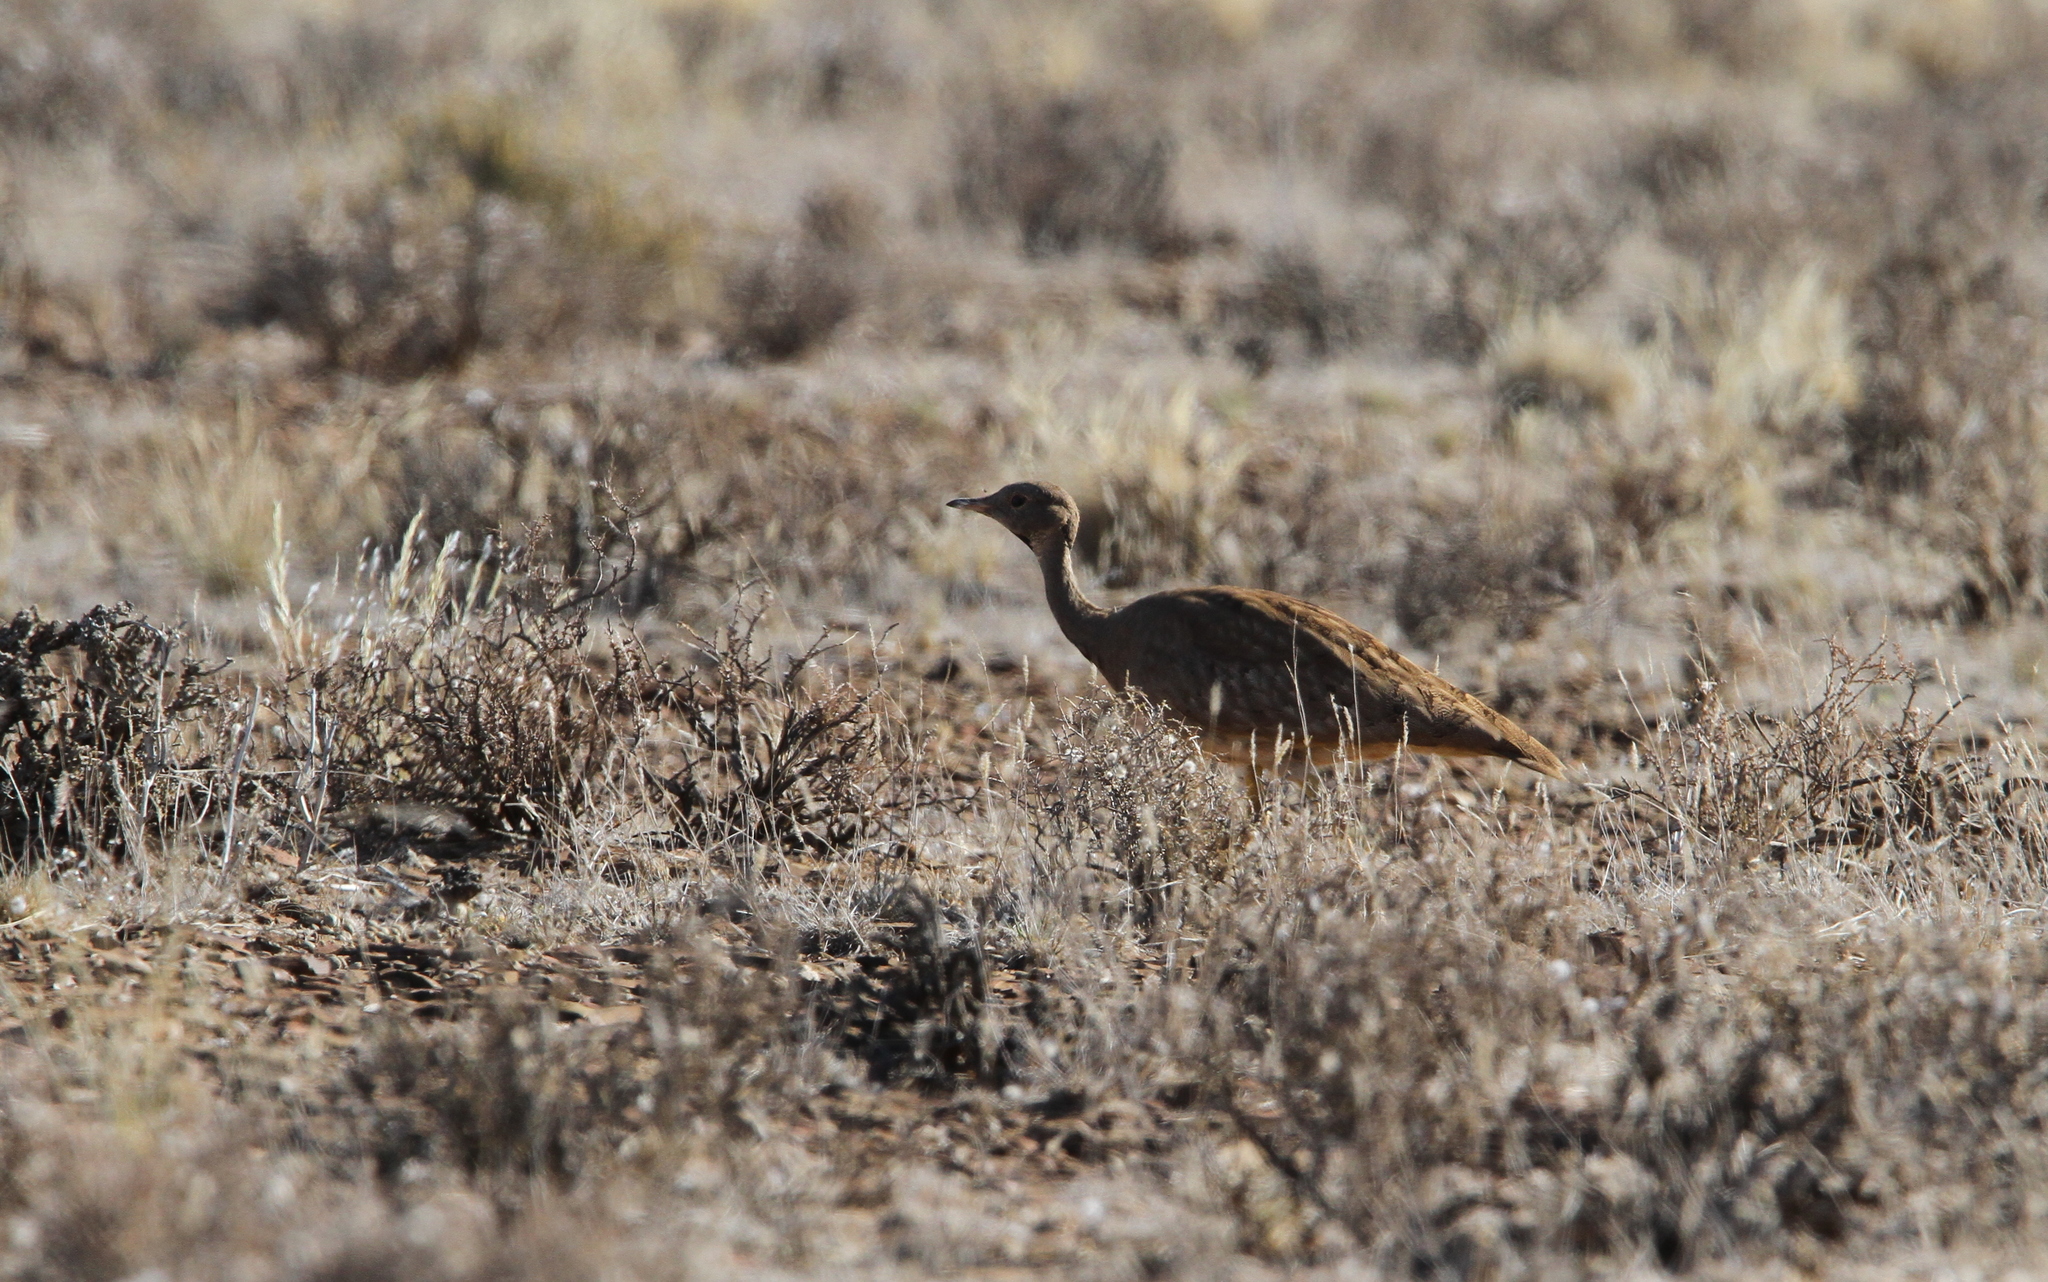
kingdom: Animalia
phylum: Chordata
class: Aves
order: Otidiformes
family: Otididae
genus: Eupodotis
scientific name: Eupodotis vigorsii
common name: Karoo korhaan
